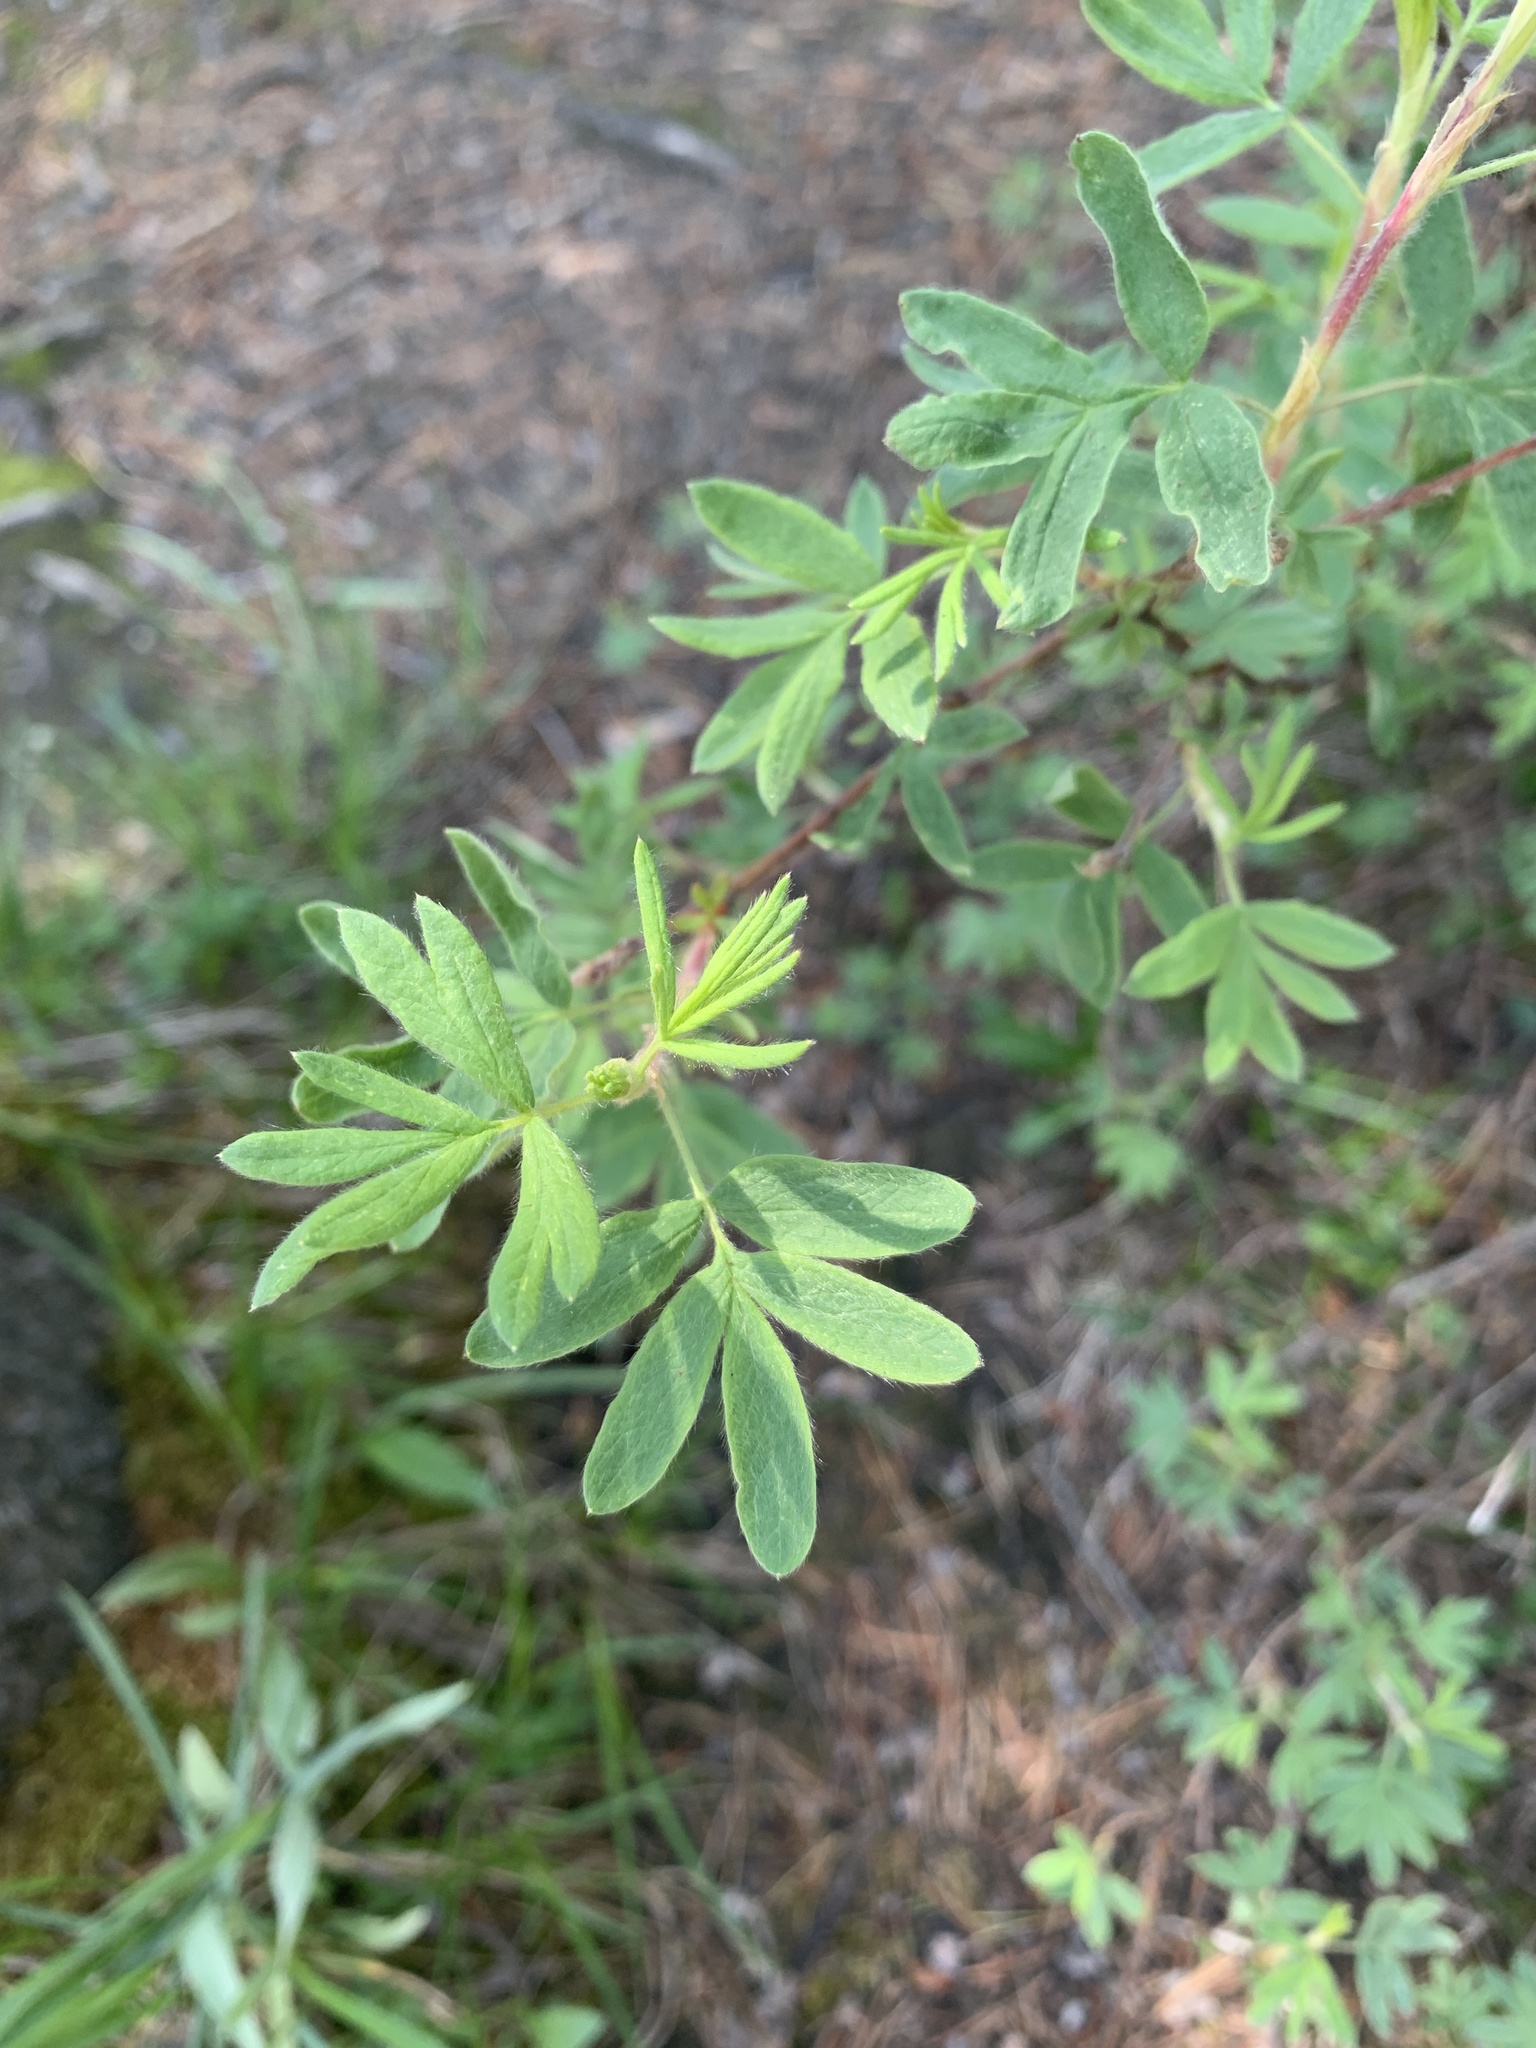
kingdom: Plantae
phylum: Tracheophyta
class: Magnoliopsida
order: Rosales
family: Rosaceae
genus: Dasiphora
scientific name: Dasiphora fruticosa
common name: Shrubby cinquefoil
